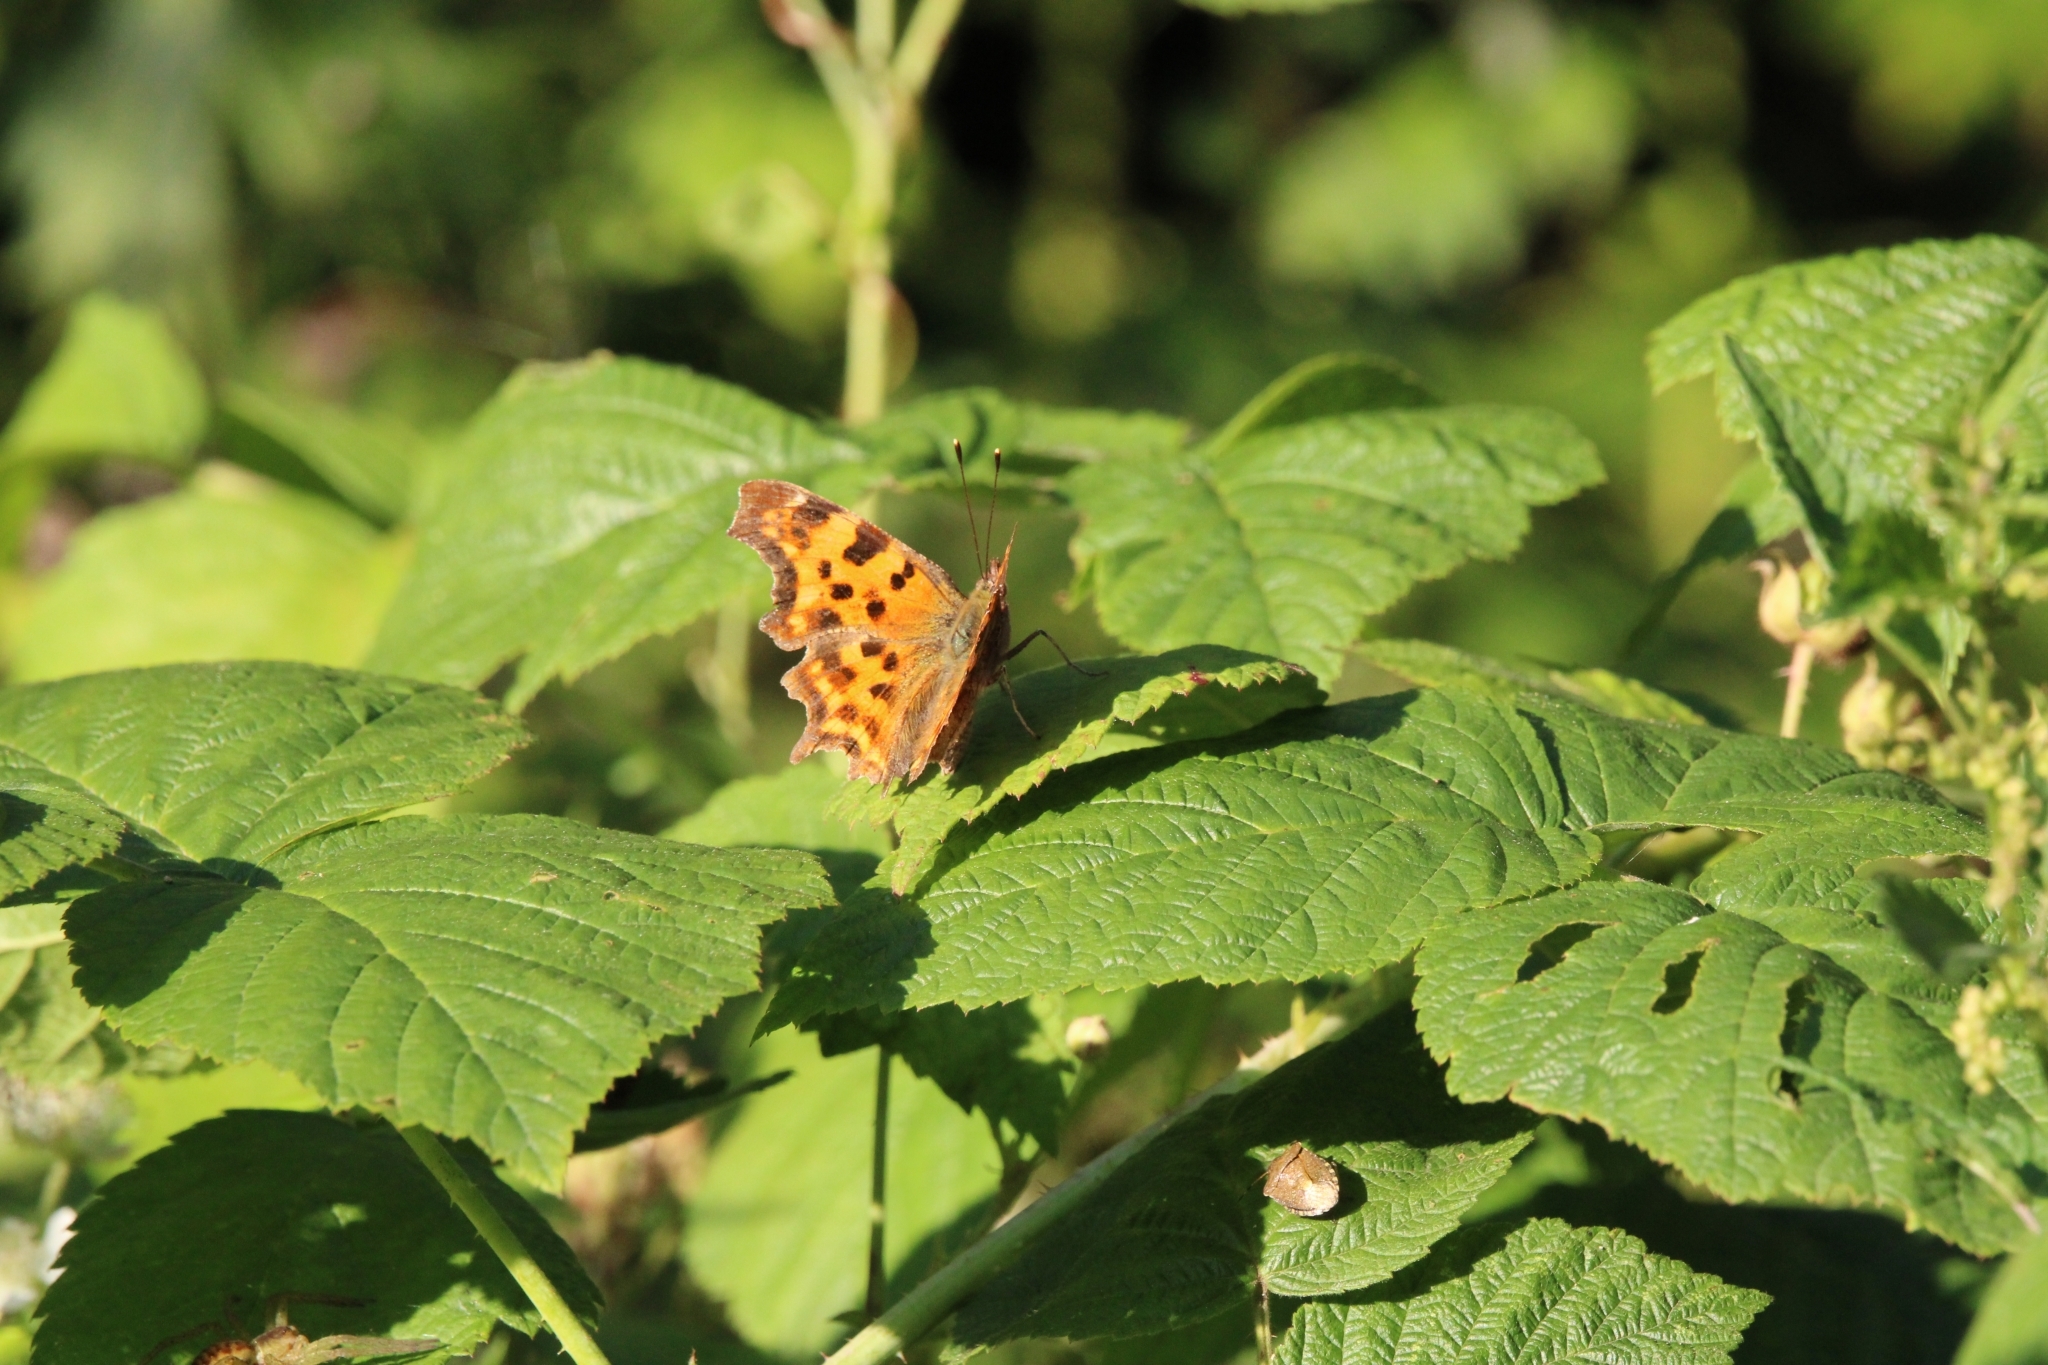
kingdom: Animalia
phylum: Arthropoda
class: Insecta
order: Lepidoptera
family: Nymphalidae
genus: Polygonia
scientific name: Polygonia c-album
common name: Comma
